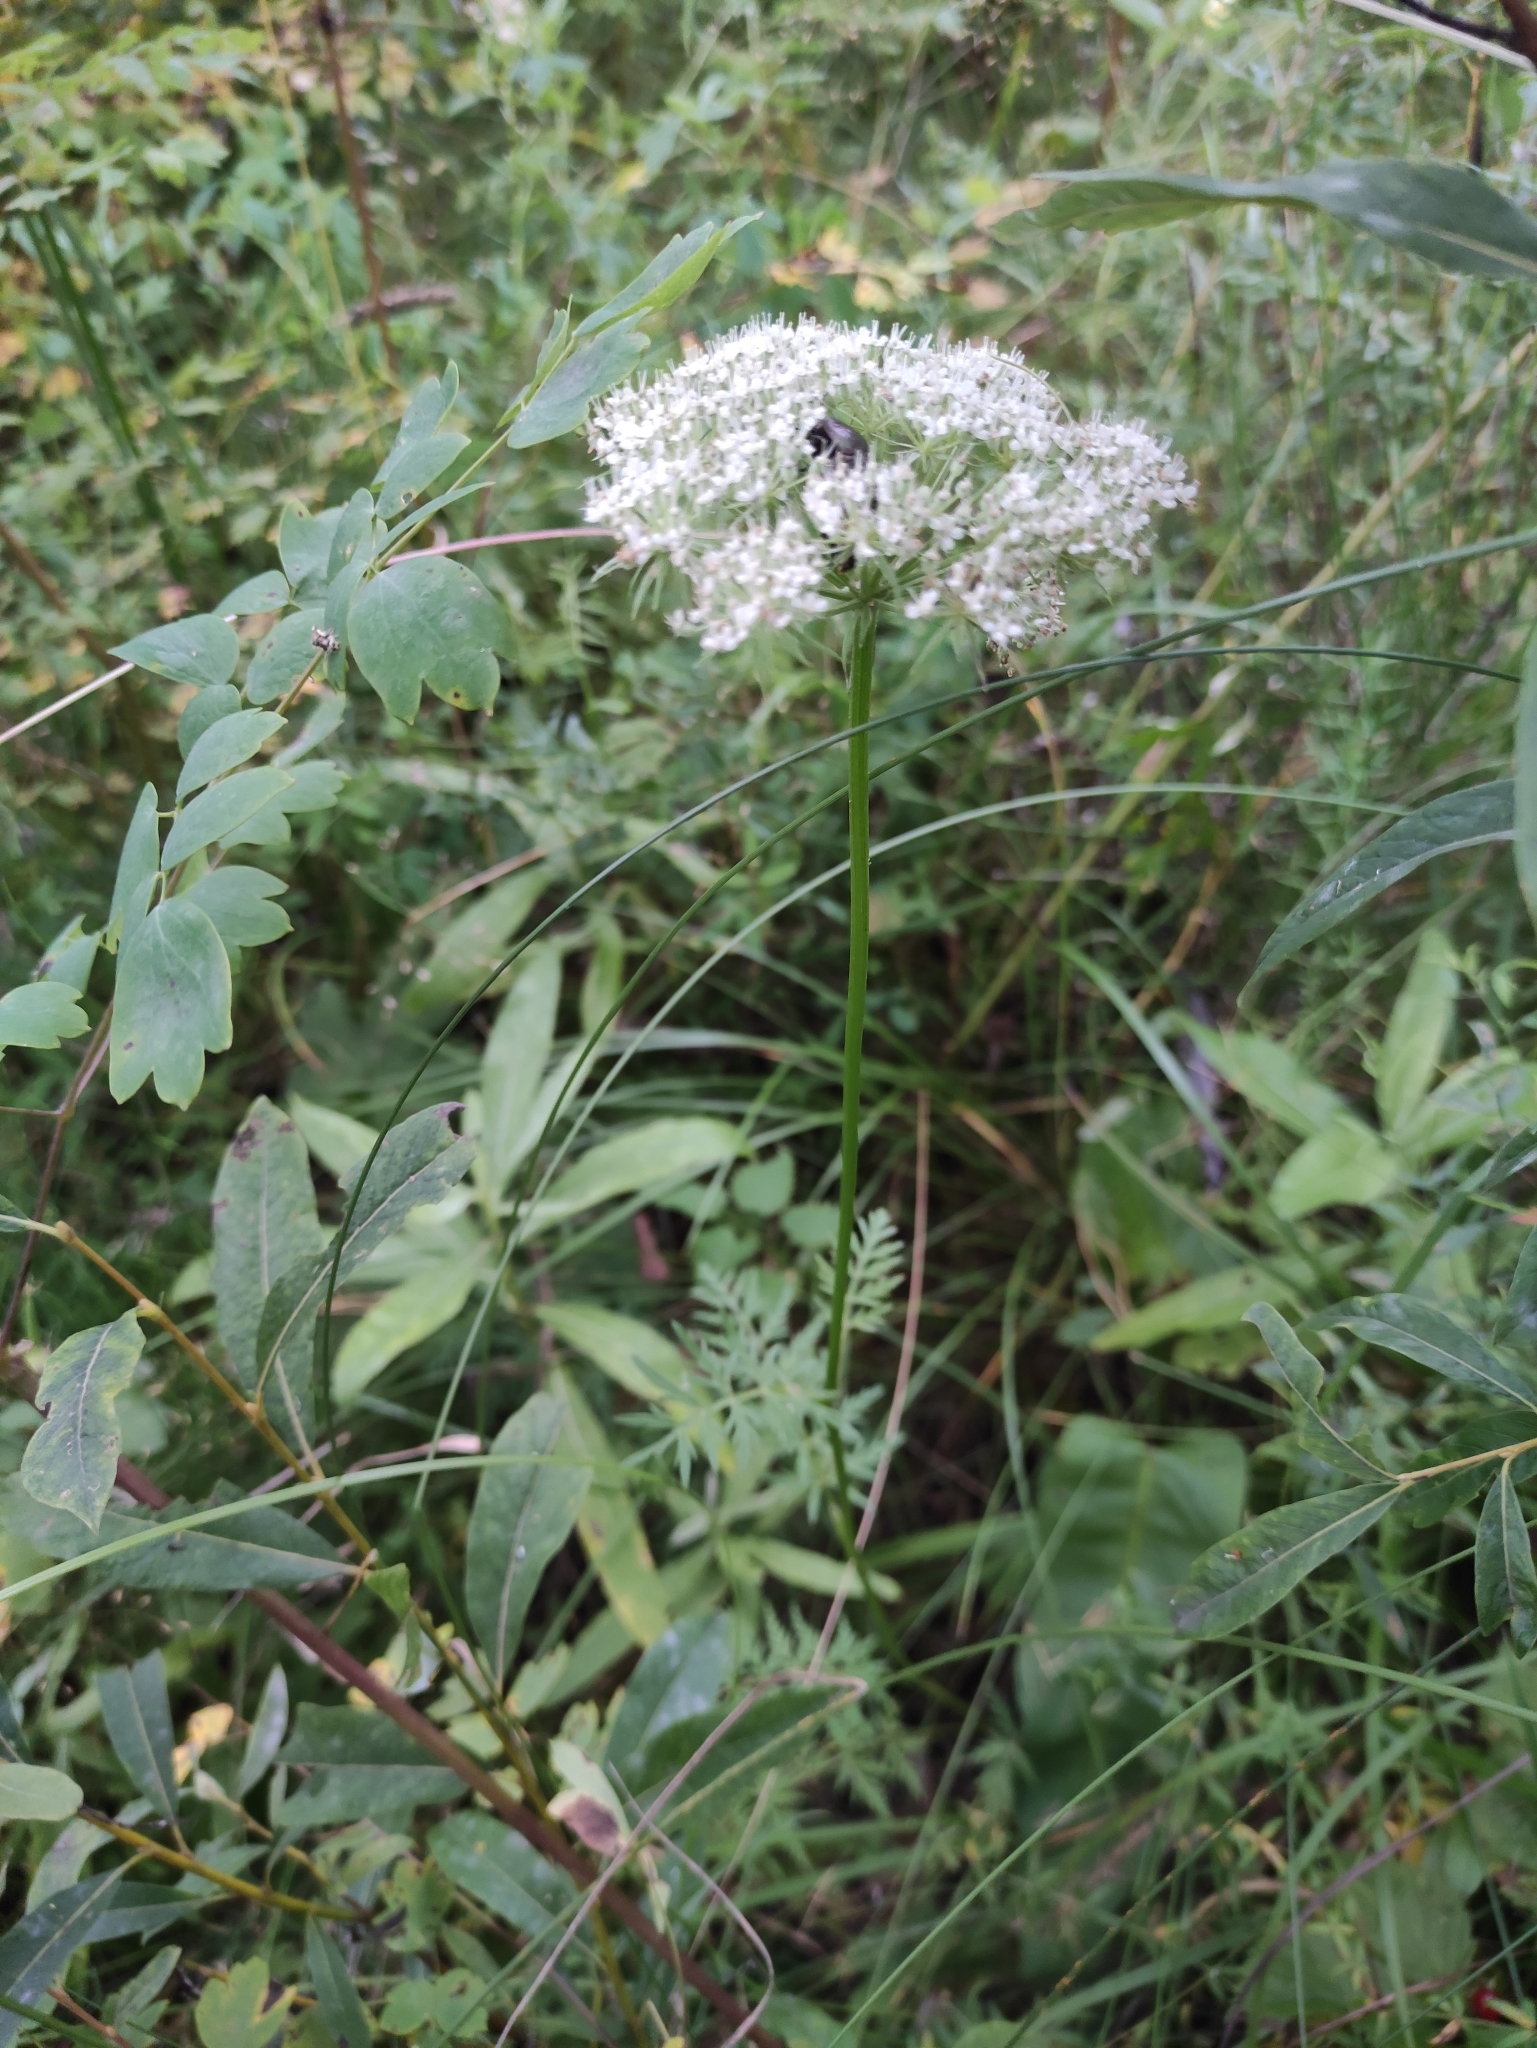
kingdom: Plantae
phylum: Tracheophyta
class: Magnoliopsida
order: Apiales
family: Apiaceae
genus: Seseli
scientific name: Seseli condensatum
